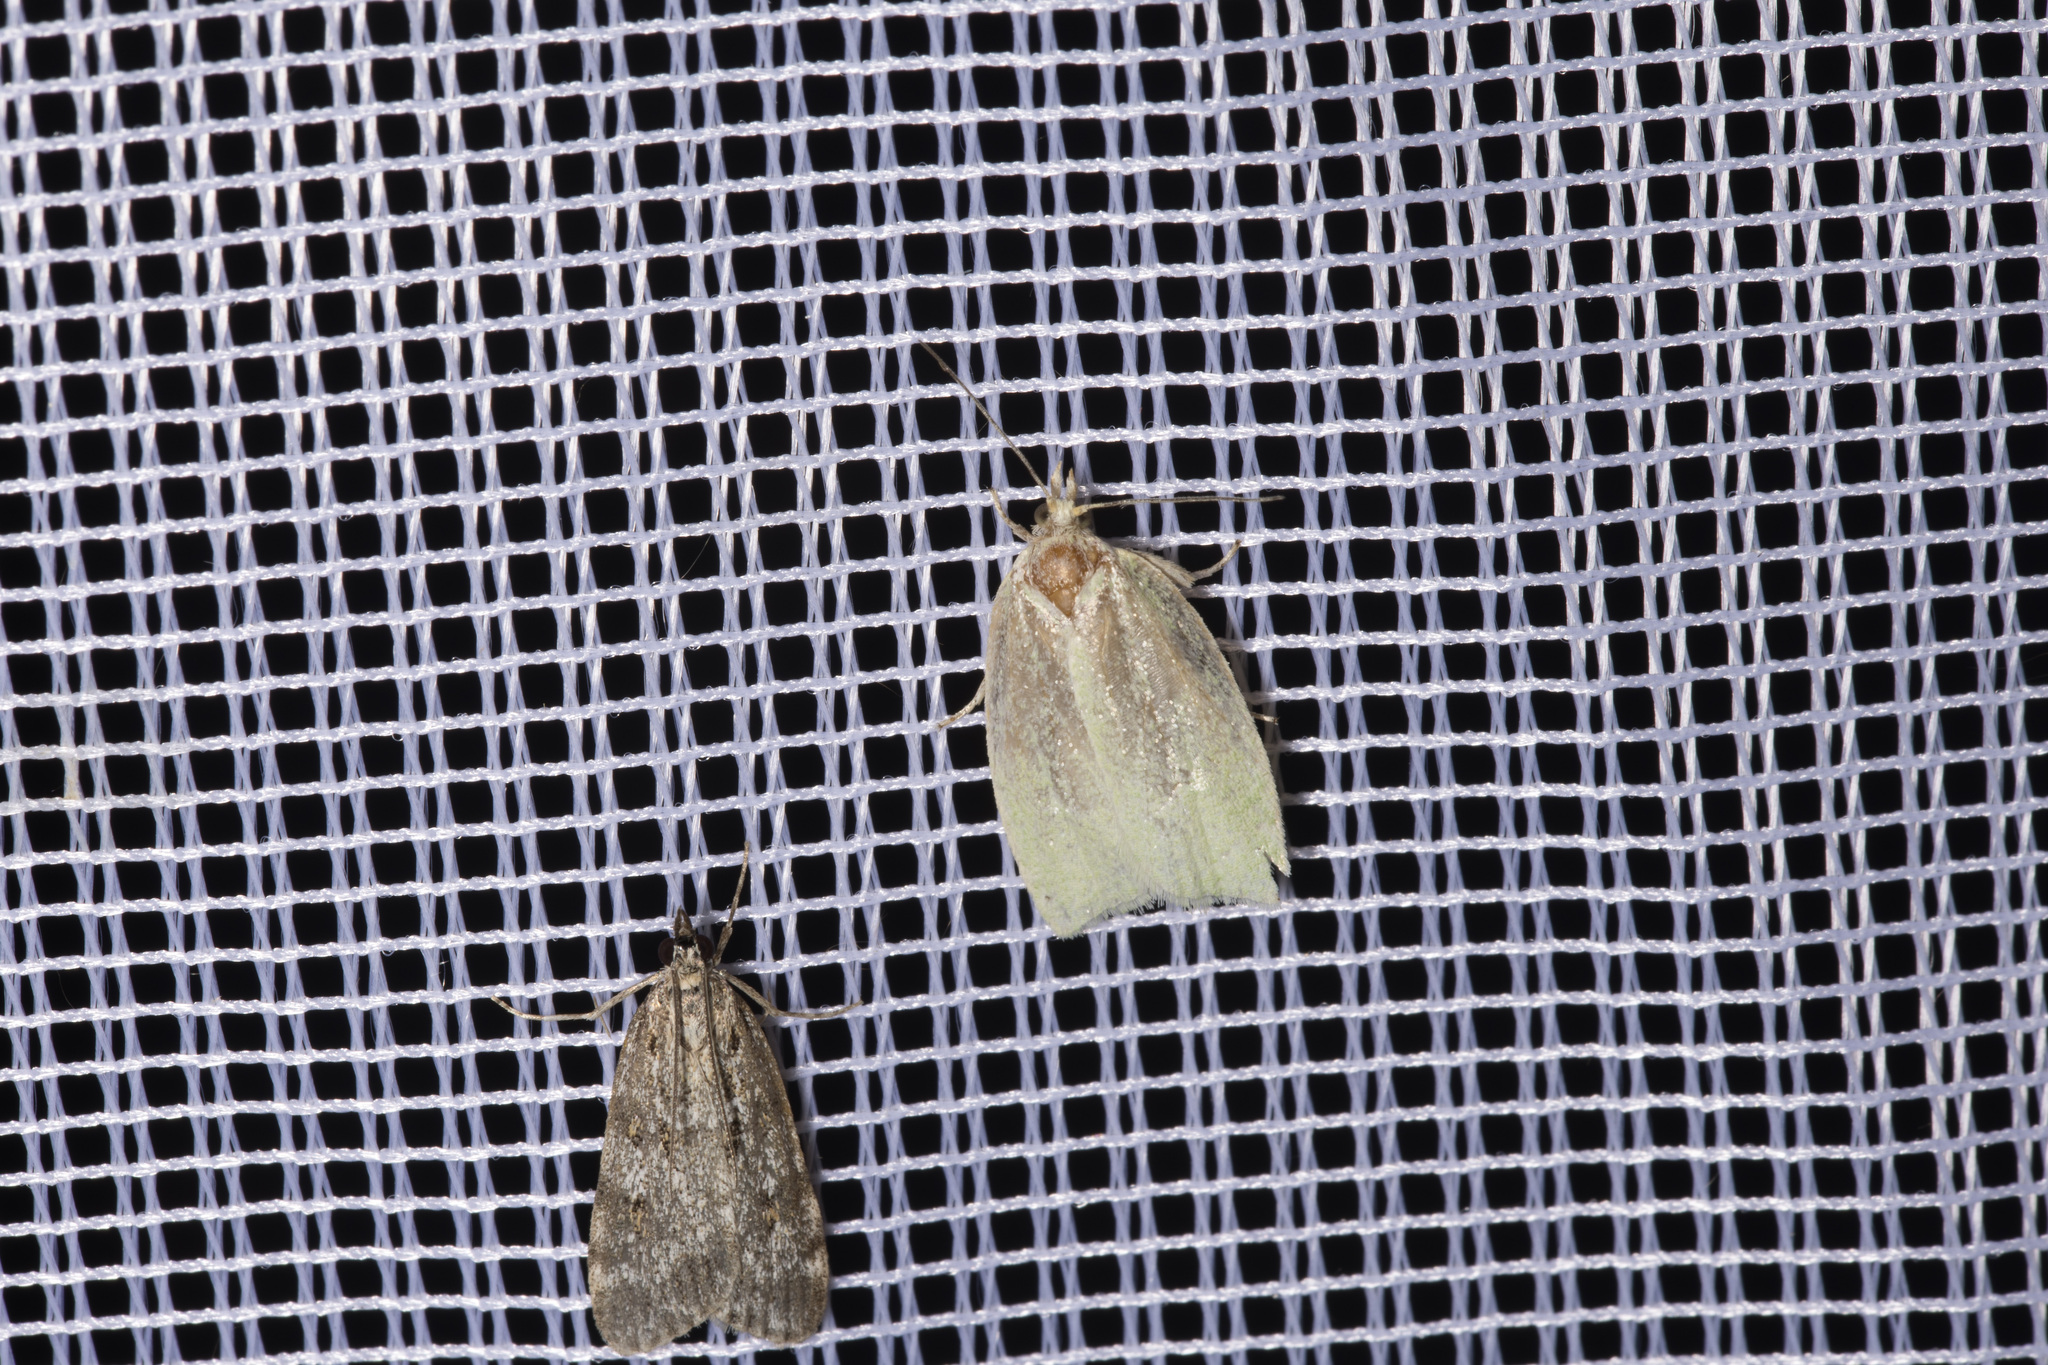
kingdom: Animalia
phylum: Arthropoda
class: Insecta
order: Lepidoptera
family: Tortricidae
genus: Tortrix
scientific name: Tortrix viridana
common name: Green oak tortrix
